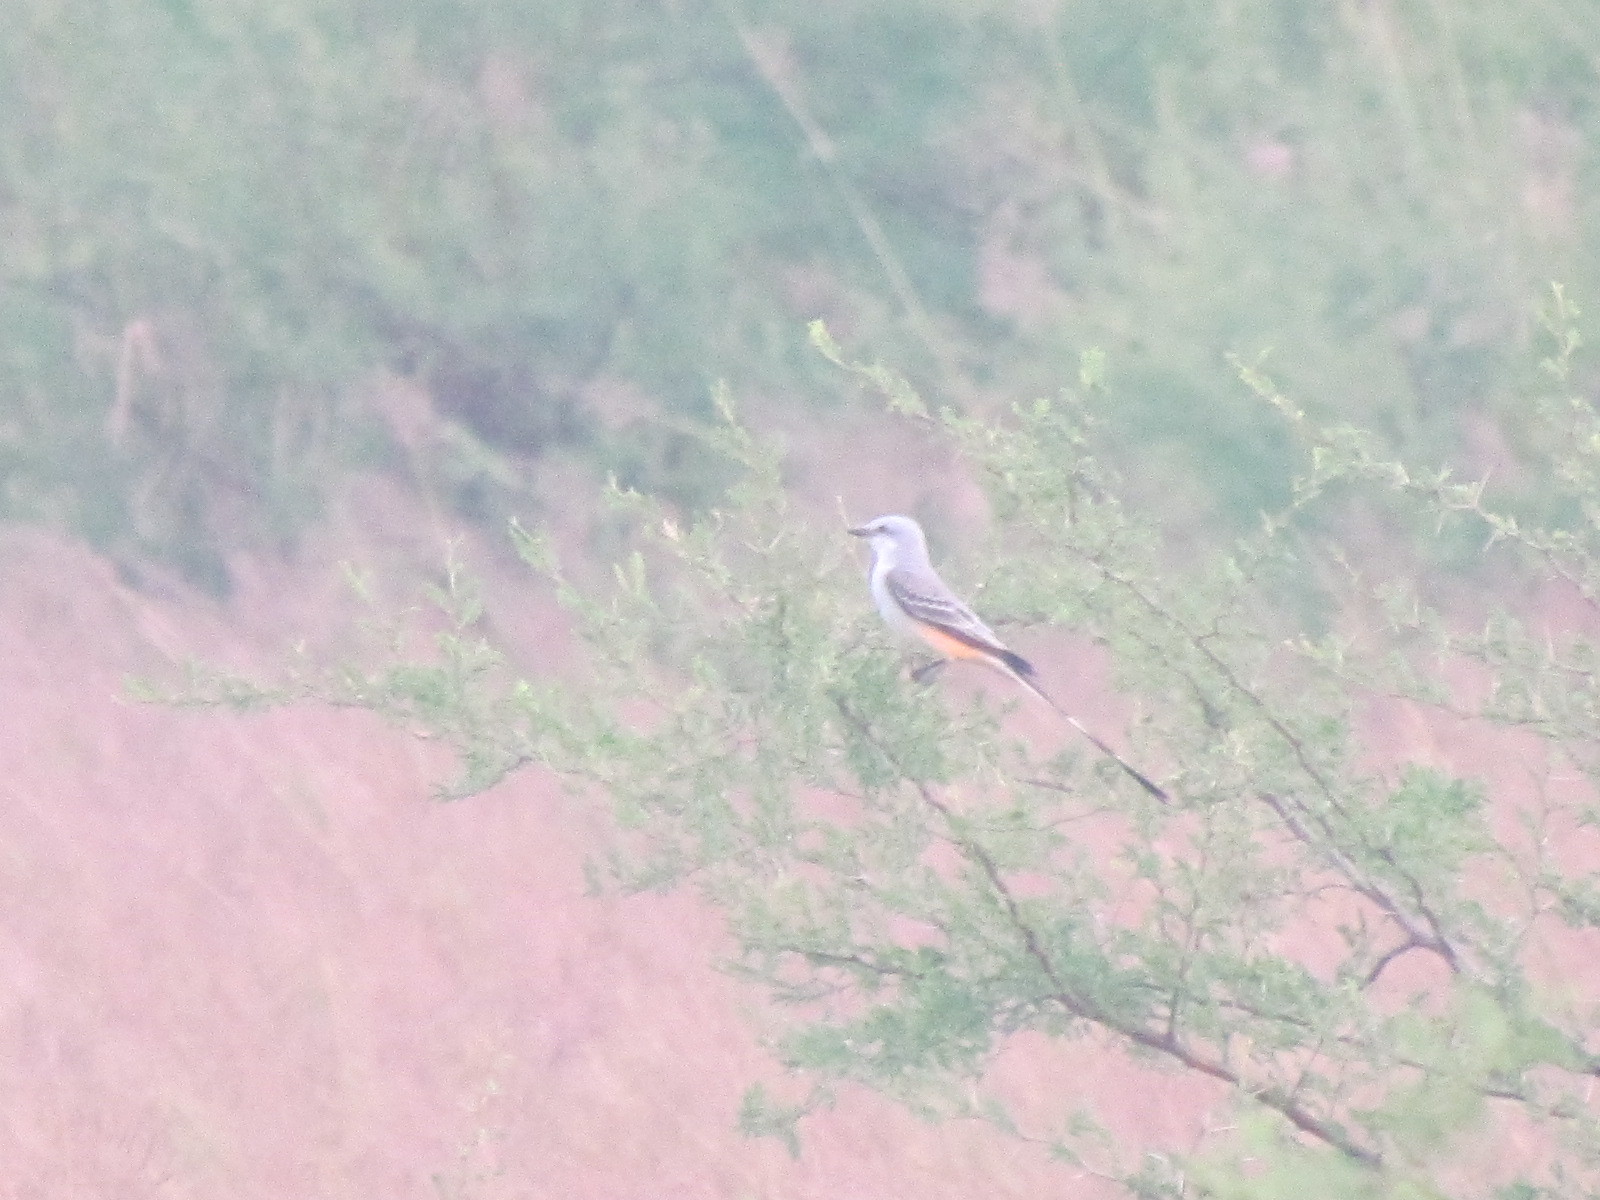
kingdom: Animalia
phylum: Chordata
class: Aves
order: Passeriformes
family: Tyrannidae
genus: Tyrannus
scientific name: Tyrannus forficatus
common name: Scissor-tailed flycatcher
